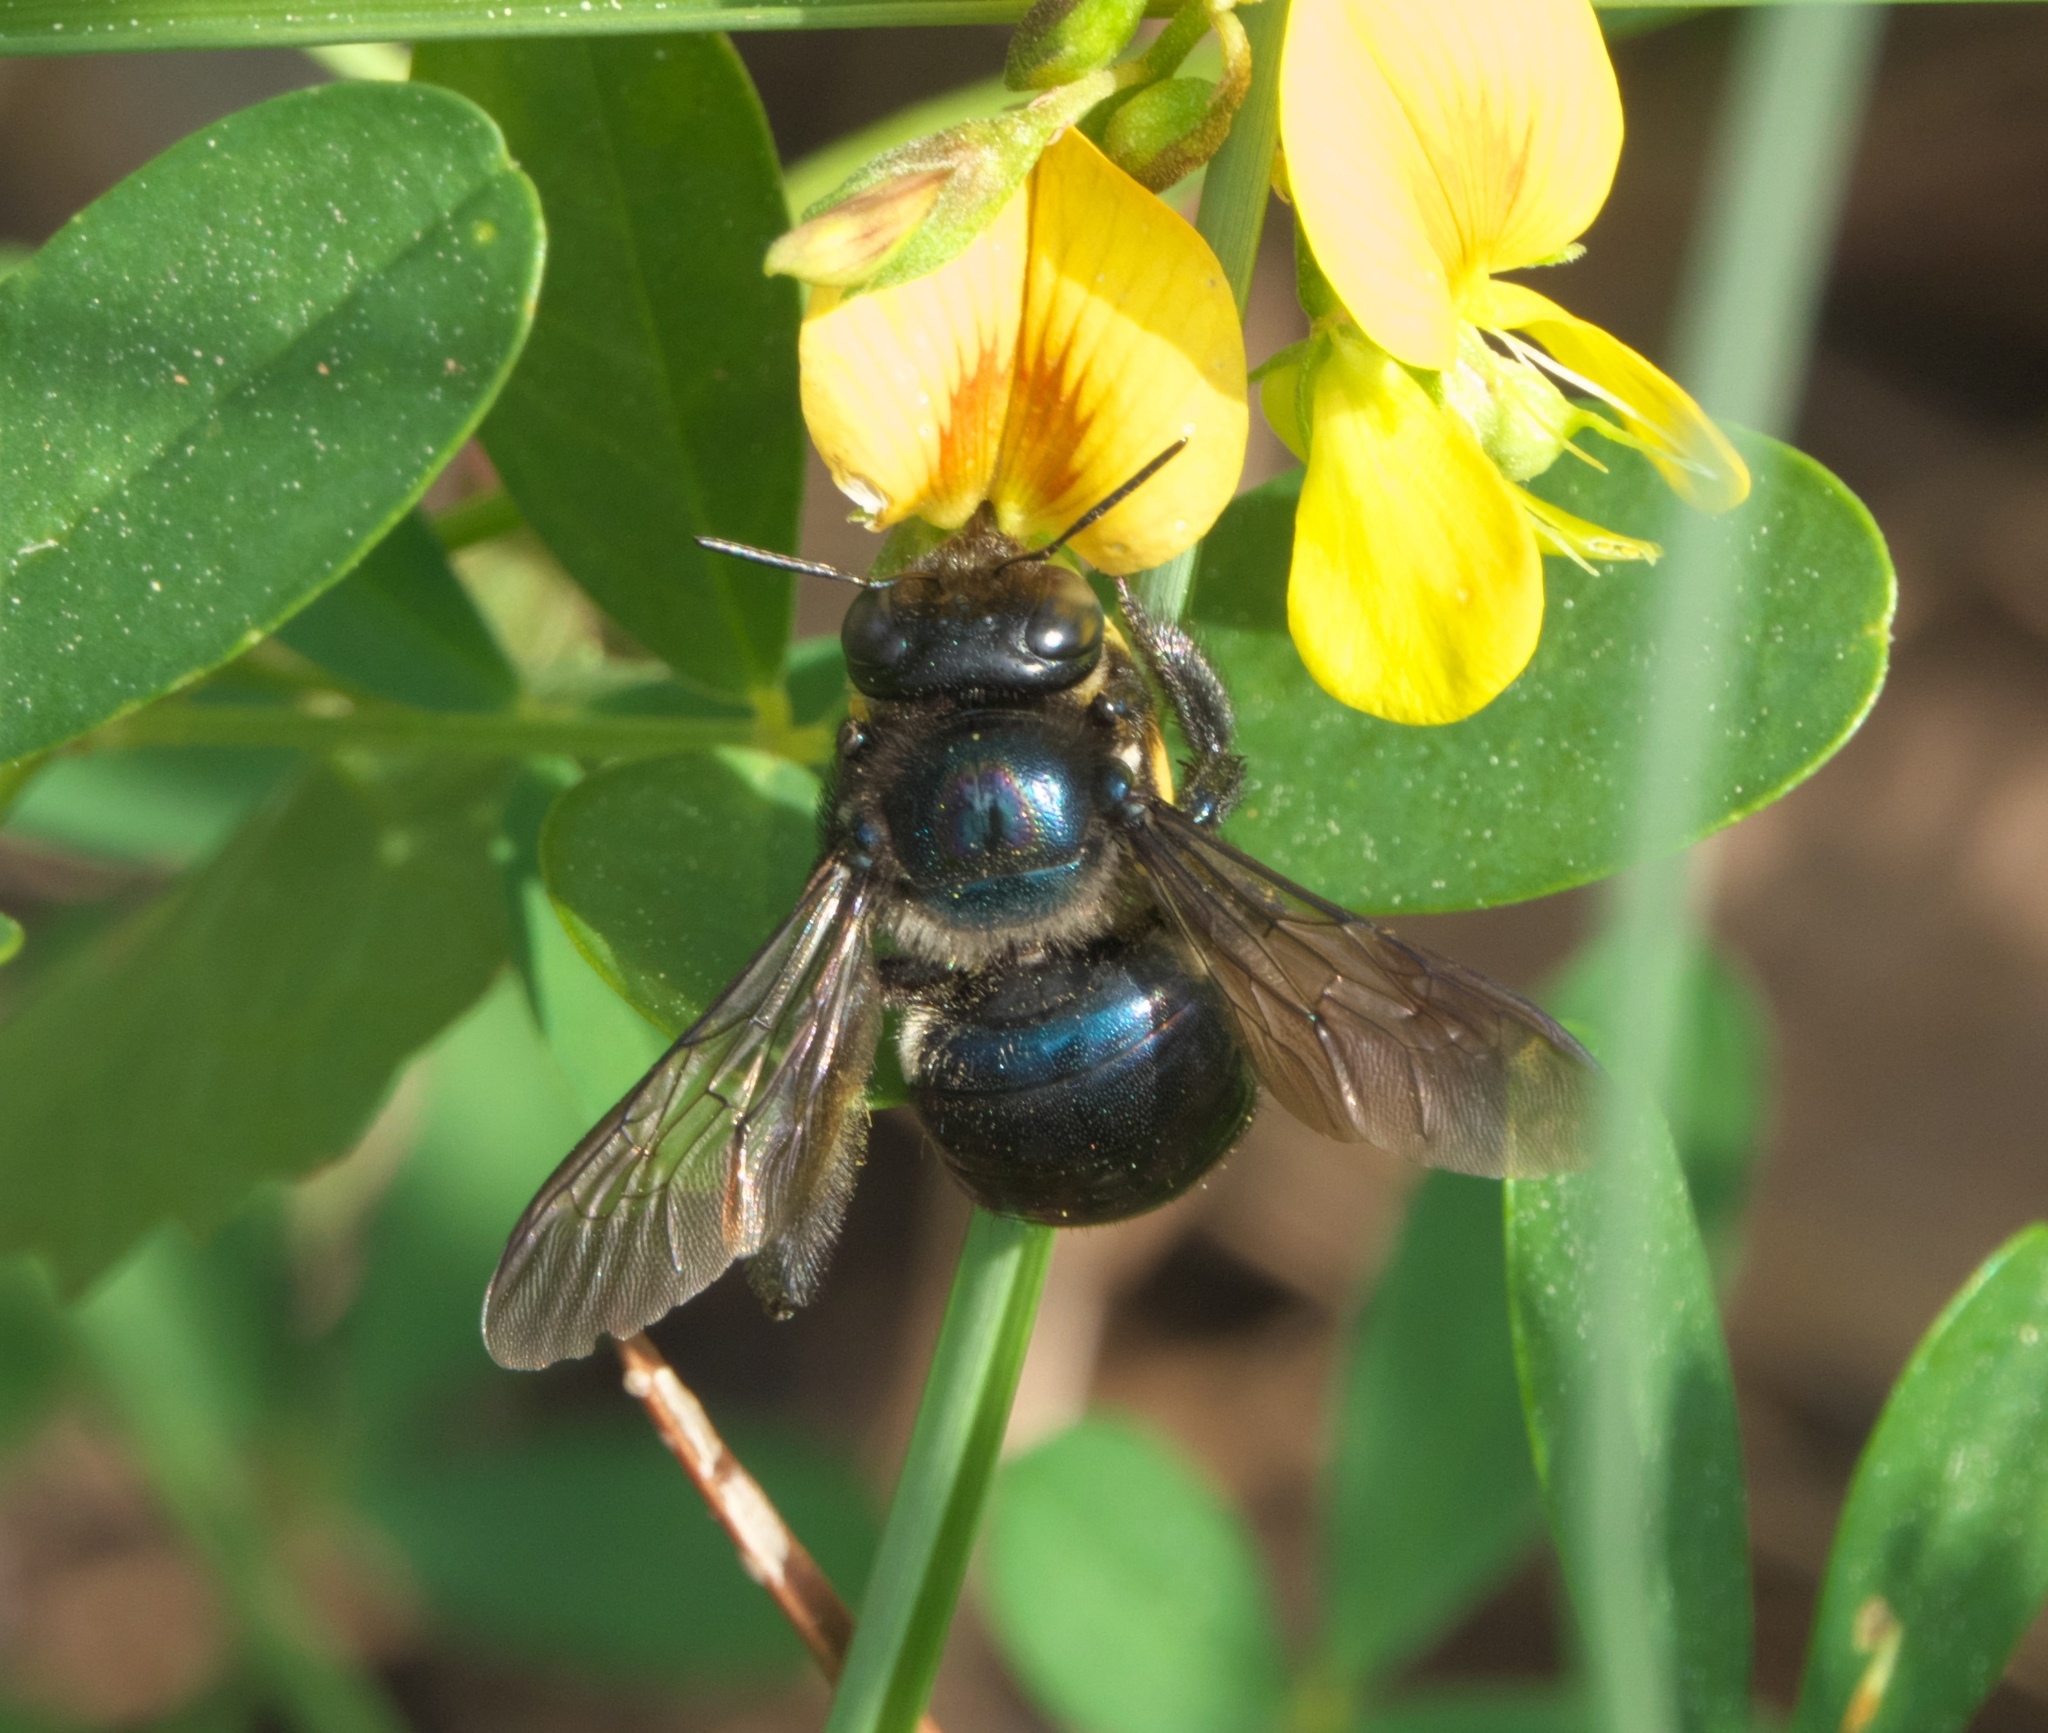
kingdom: Animalia
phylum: Arthropoda
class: Insecta
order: Hymenoptera
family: Apidae
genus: Xylocopa
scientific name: Xylocopa micans
